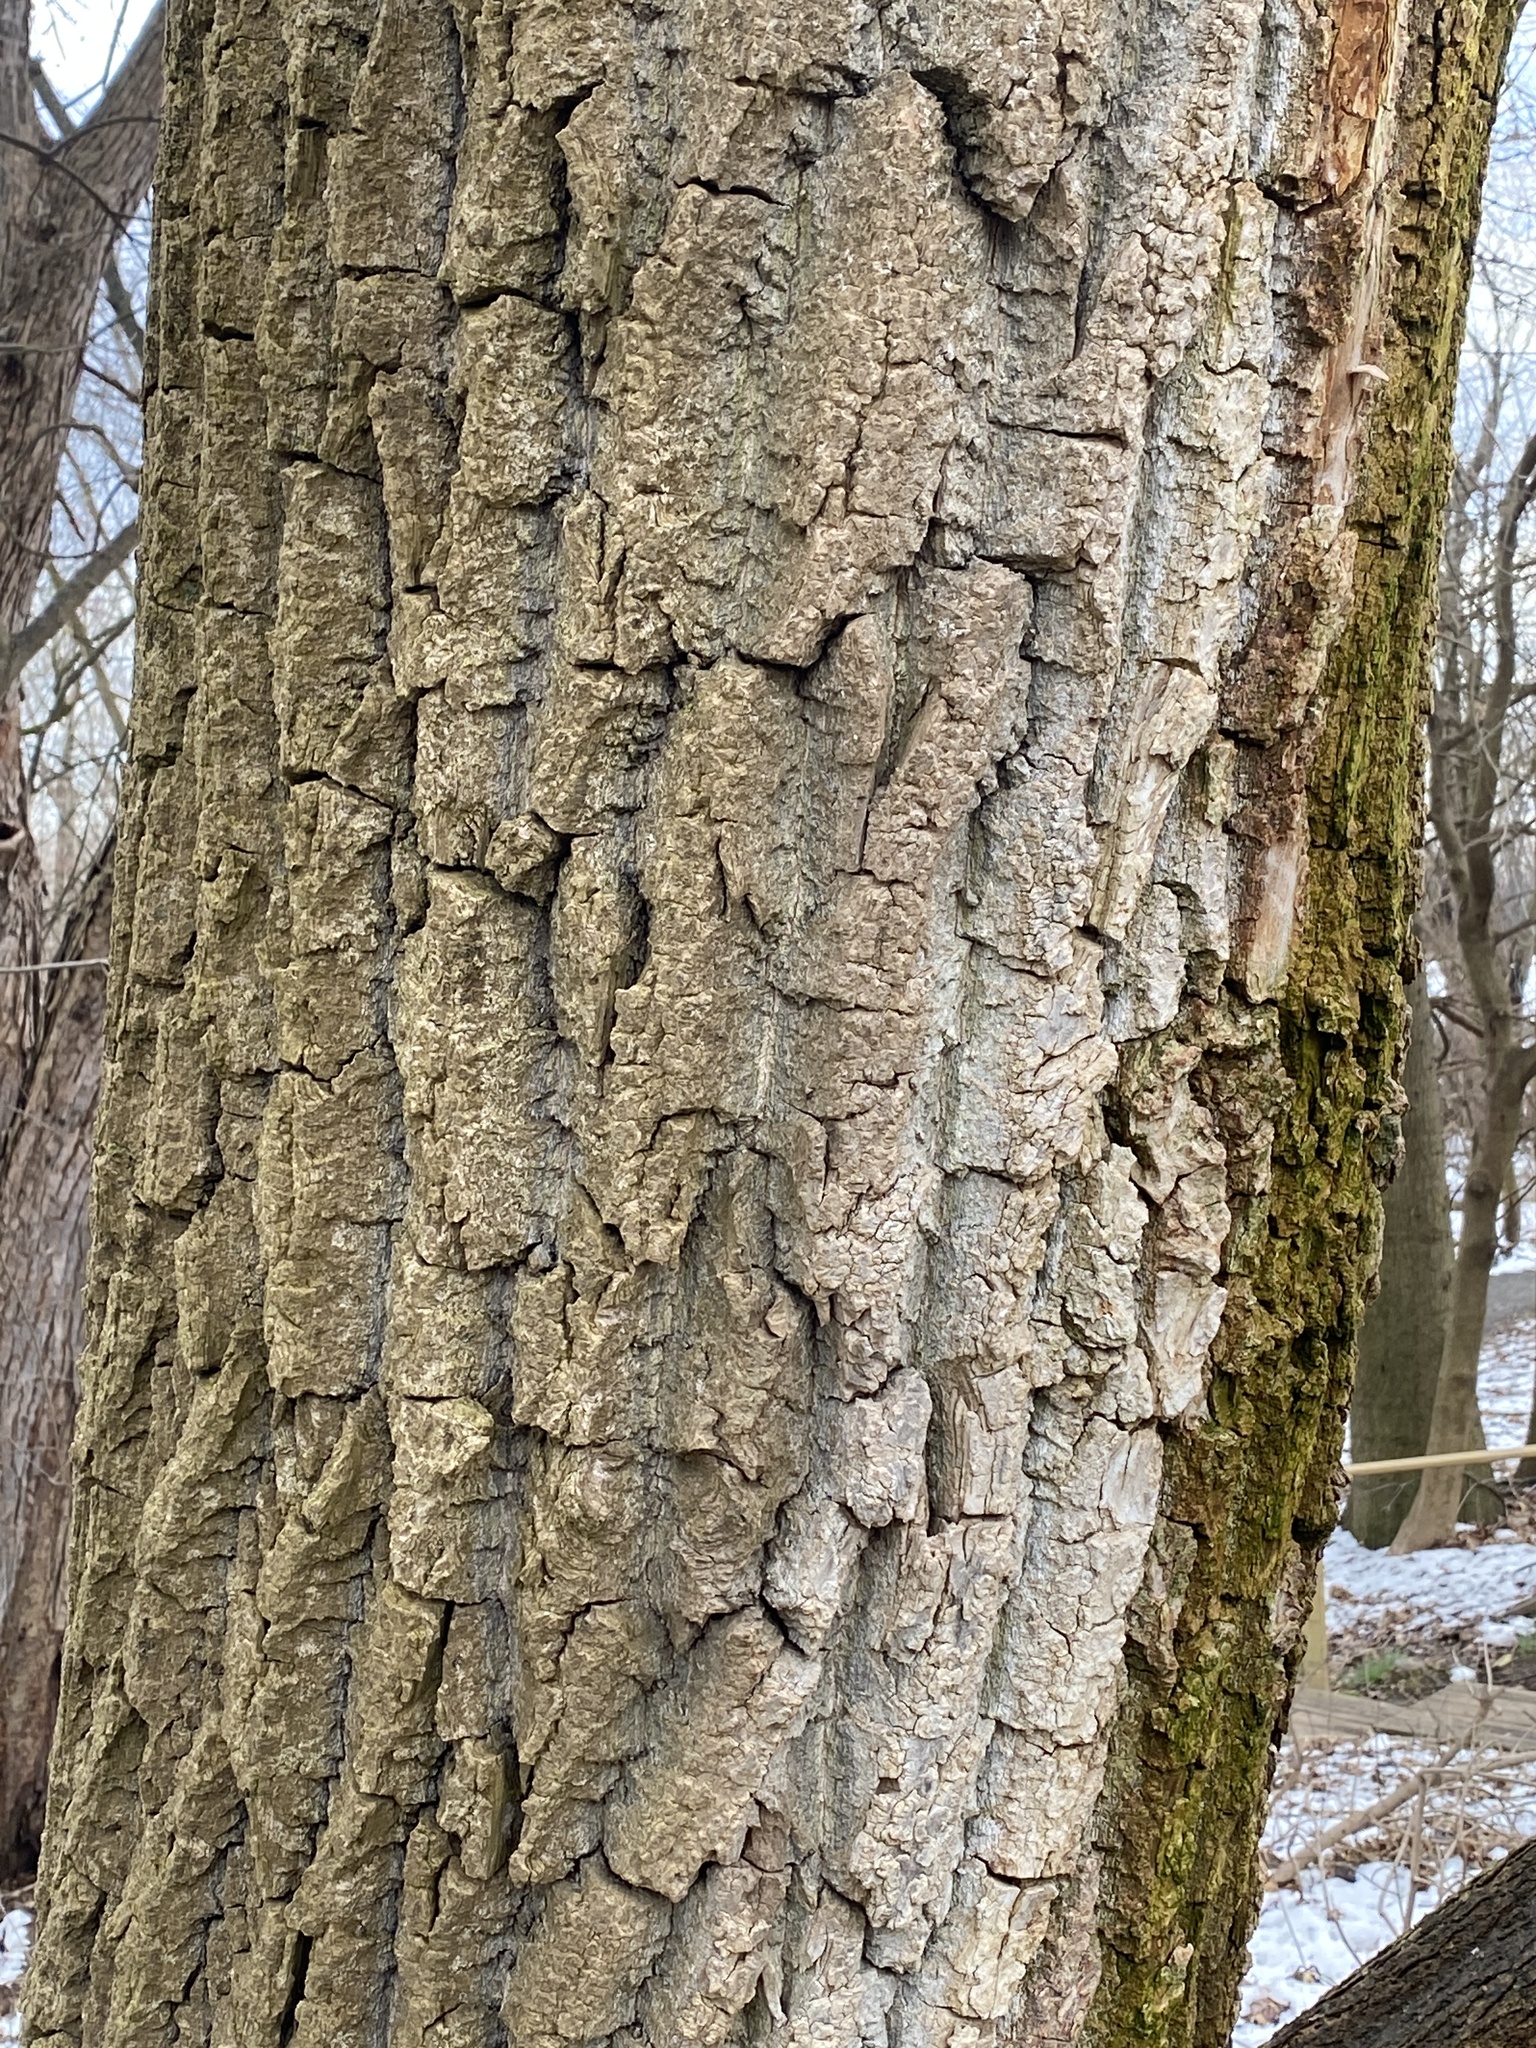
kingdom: Plantae
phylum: Tracheophyta
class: Magnoliopsida
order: Malpighiales
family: Salicaceae
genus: Populus
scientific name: Populus deltoides
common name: Eastern cottonwood
